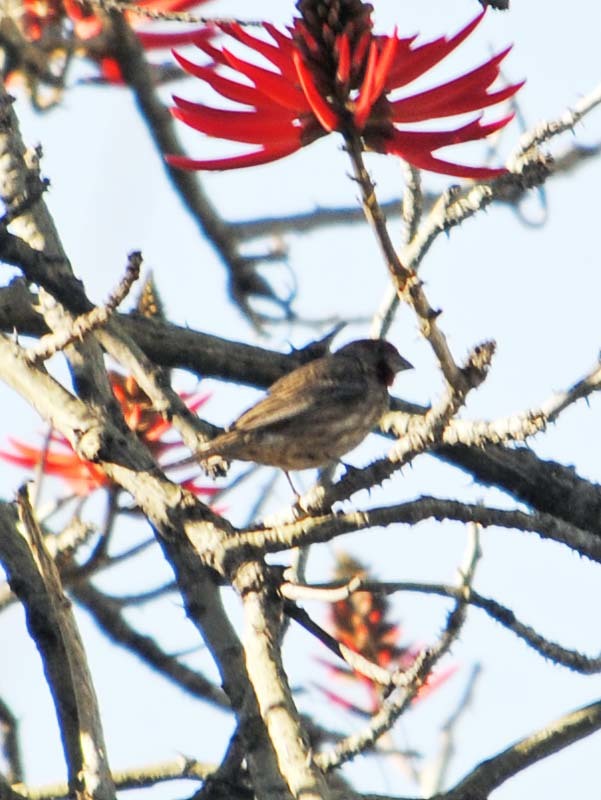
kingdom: Animalia
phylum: Chordata
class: Aves
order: Passeriformes
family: Fringillidae
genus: Haemorhous
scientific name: Haemorhous mexicanus
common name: House finch
